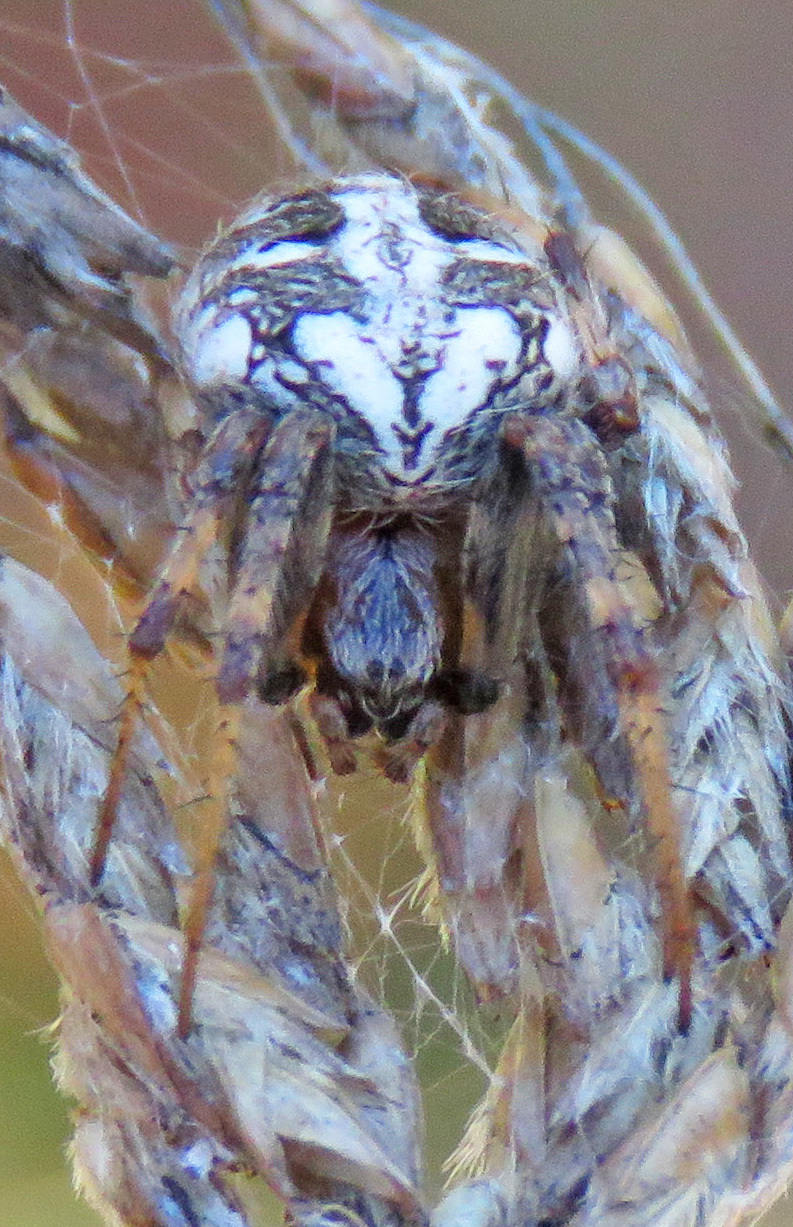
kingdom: Animalia
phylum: Arthropoda
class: Arachnida
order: Araneae
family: Araneidae
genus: Neoscona
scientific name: Neoscona arabesca
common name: Orb weavers
